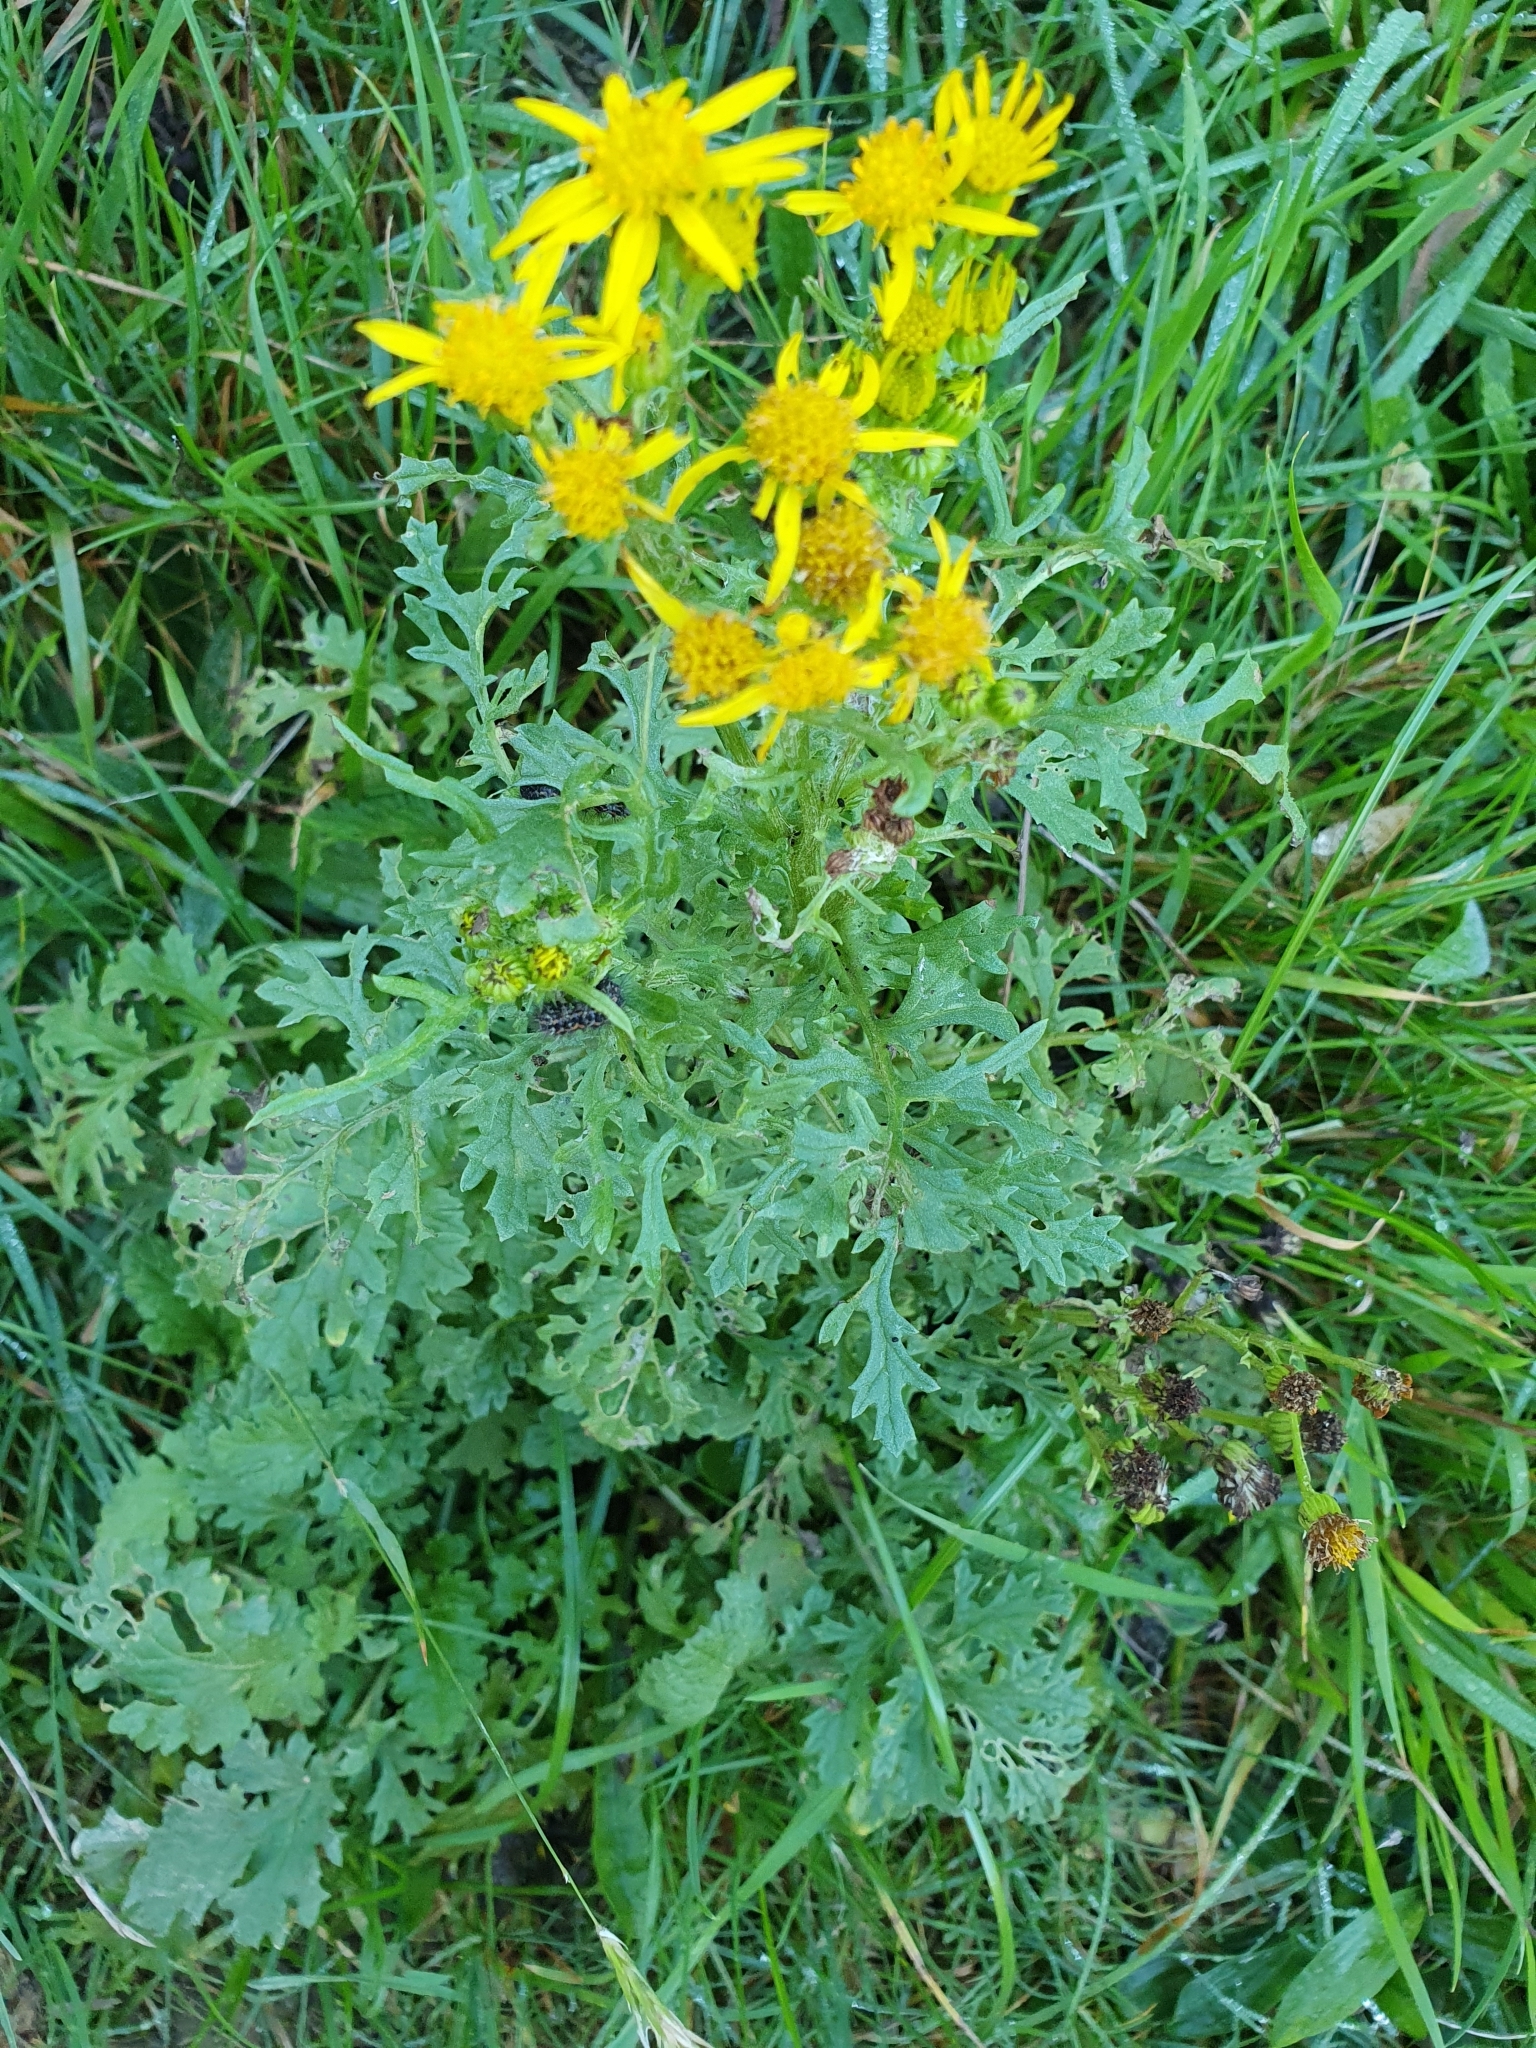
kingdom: Plantae
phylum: Tracheophyta
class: Magnoliopsida
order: Asterales
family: Asteraceae
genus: Jacobaea
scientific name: Jacobaea vulgaris
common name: Stinking willie
